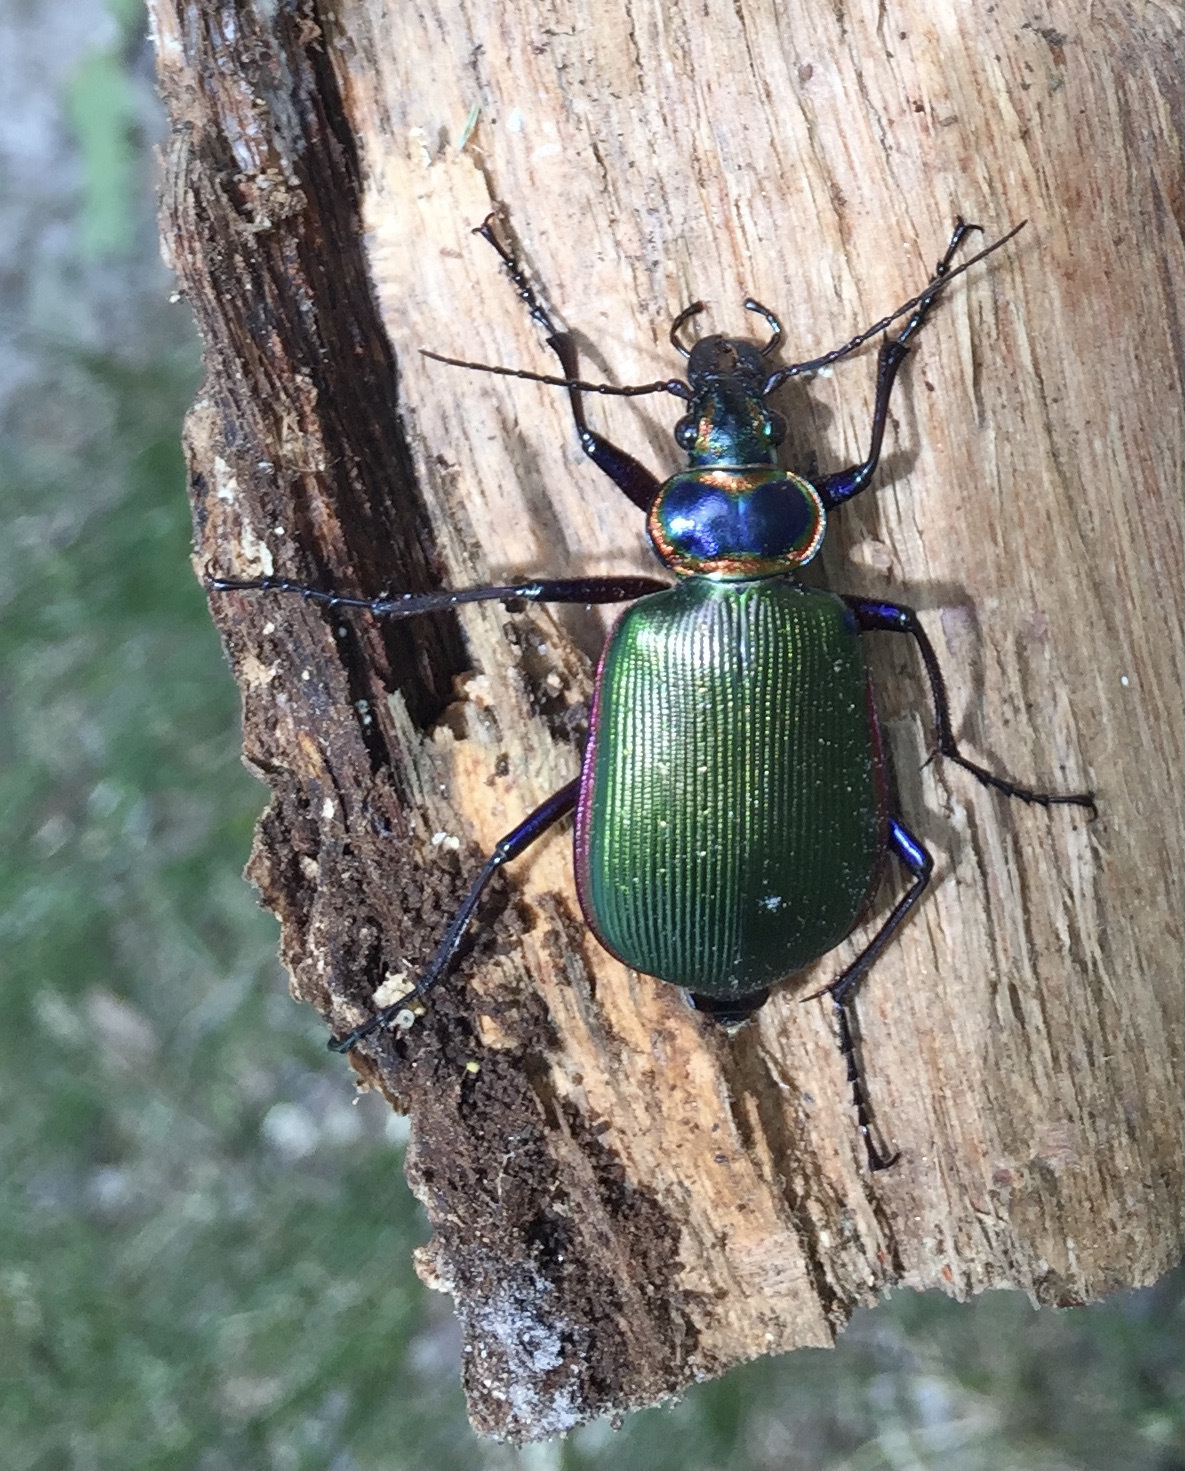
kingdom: Animalia
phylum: Arthropoda
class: Insecta
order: Coleoptera
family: Carabidae
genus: Calosoma
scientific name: Calosoma scrutator
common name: Fiery searcher beetle
